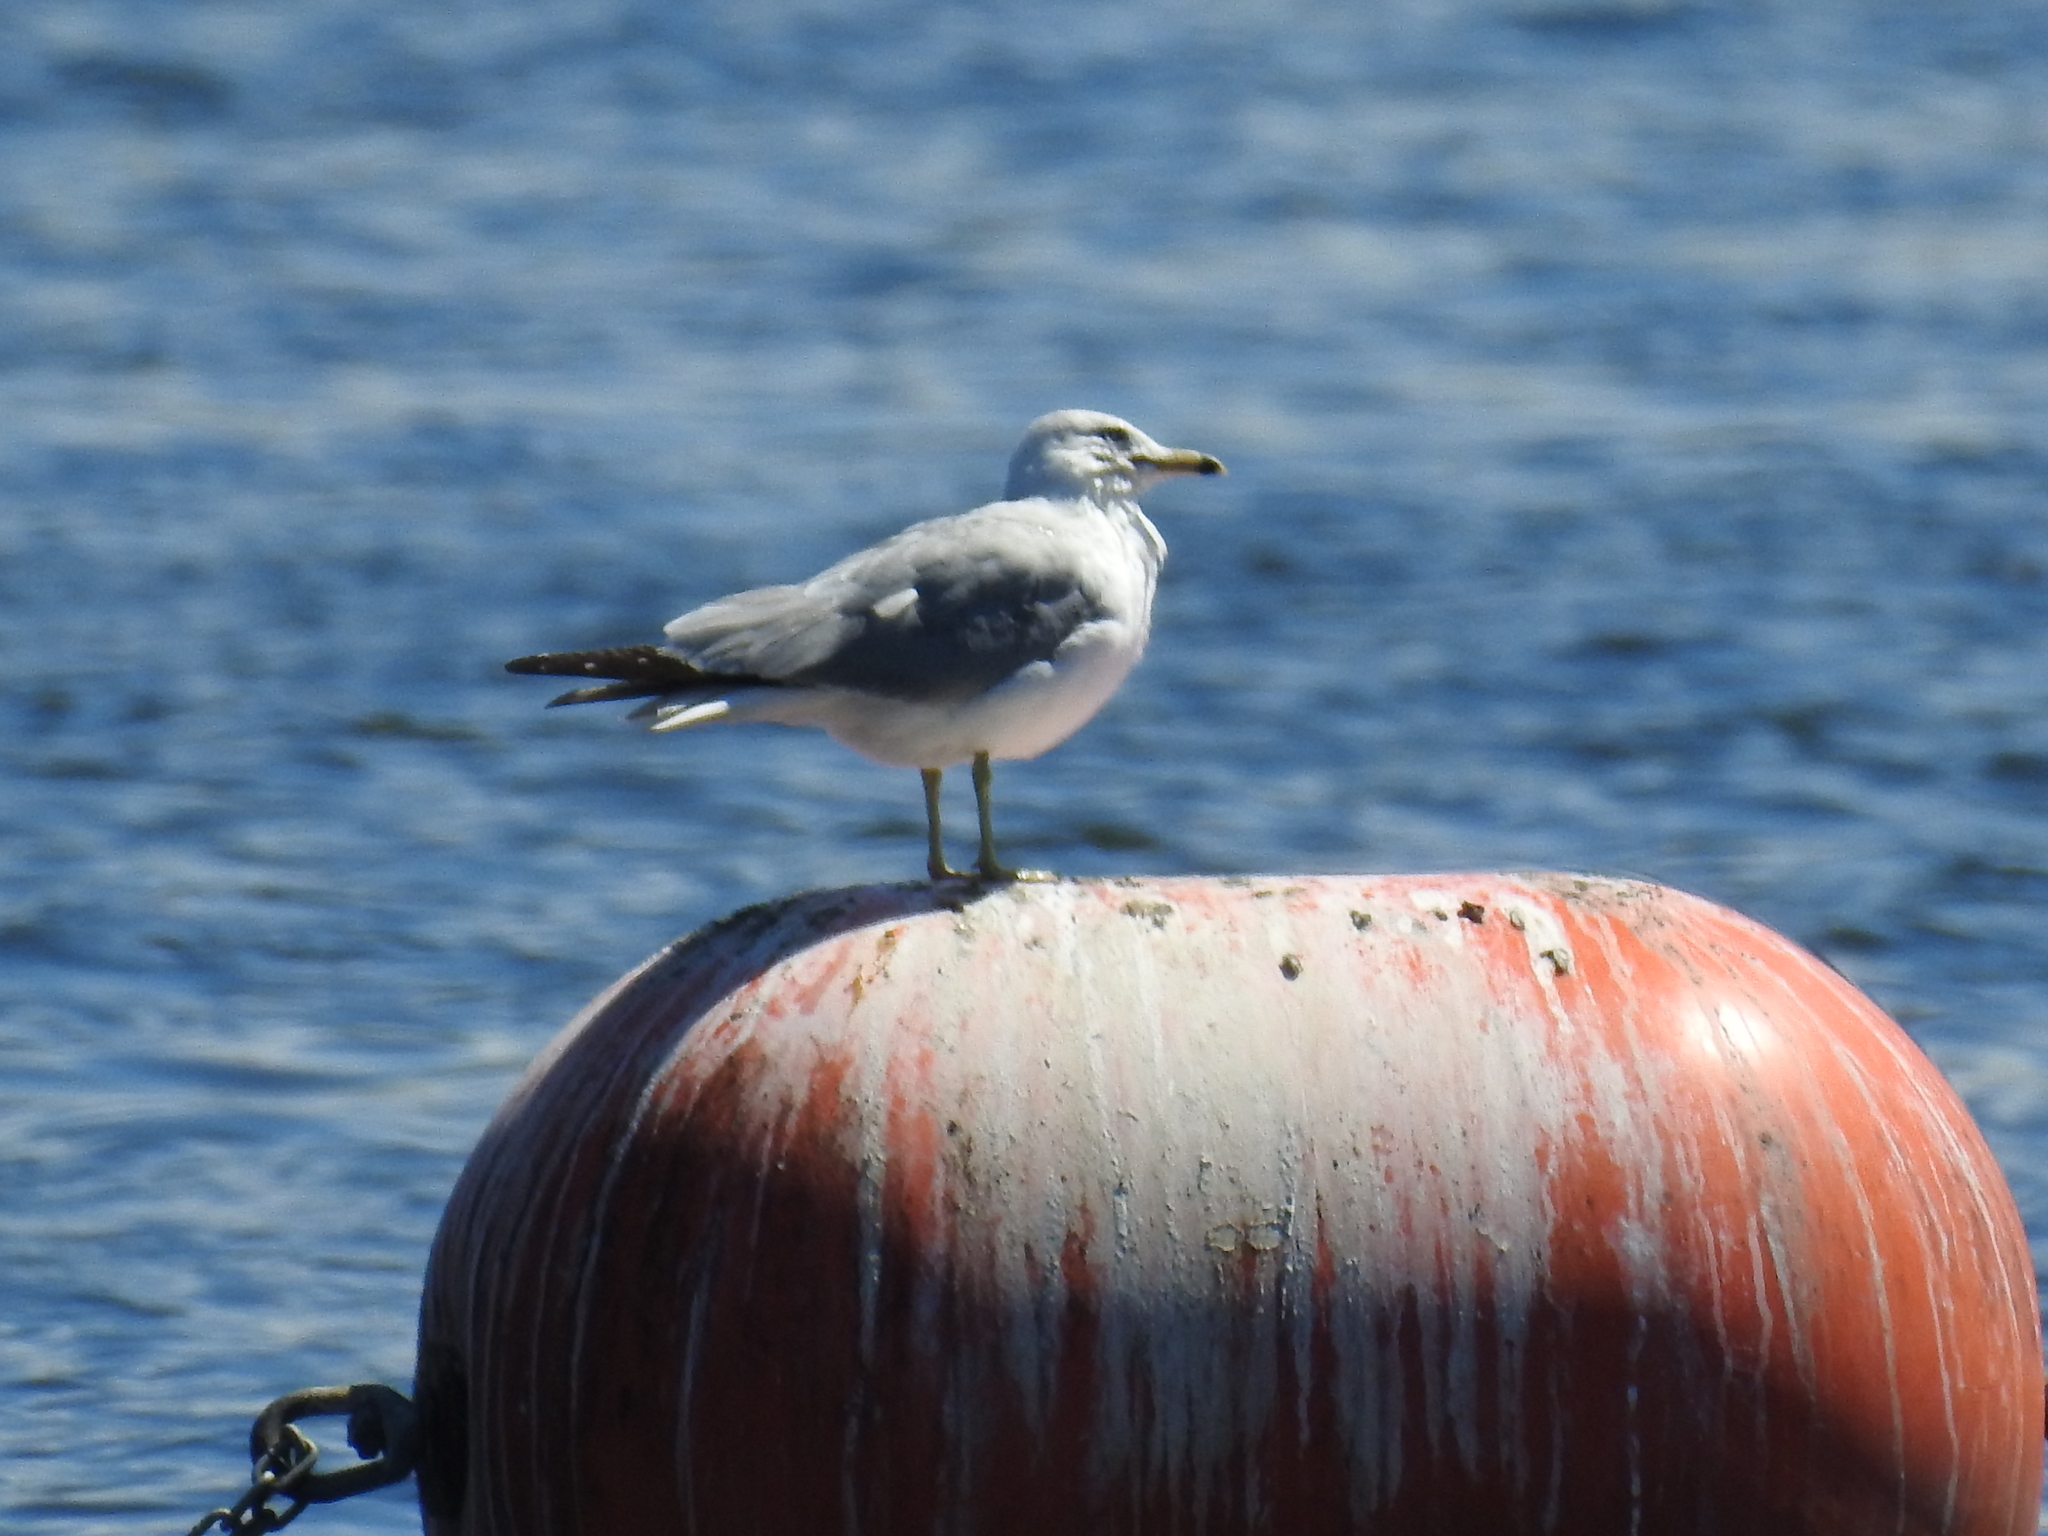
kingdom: Animalia
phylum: Chordata
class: Aves
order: Charadriiformes
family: Laridae
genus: Larus
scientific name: Larus delawarensis
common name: Ring-billed gull
